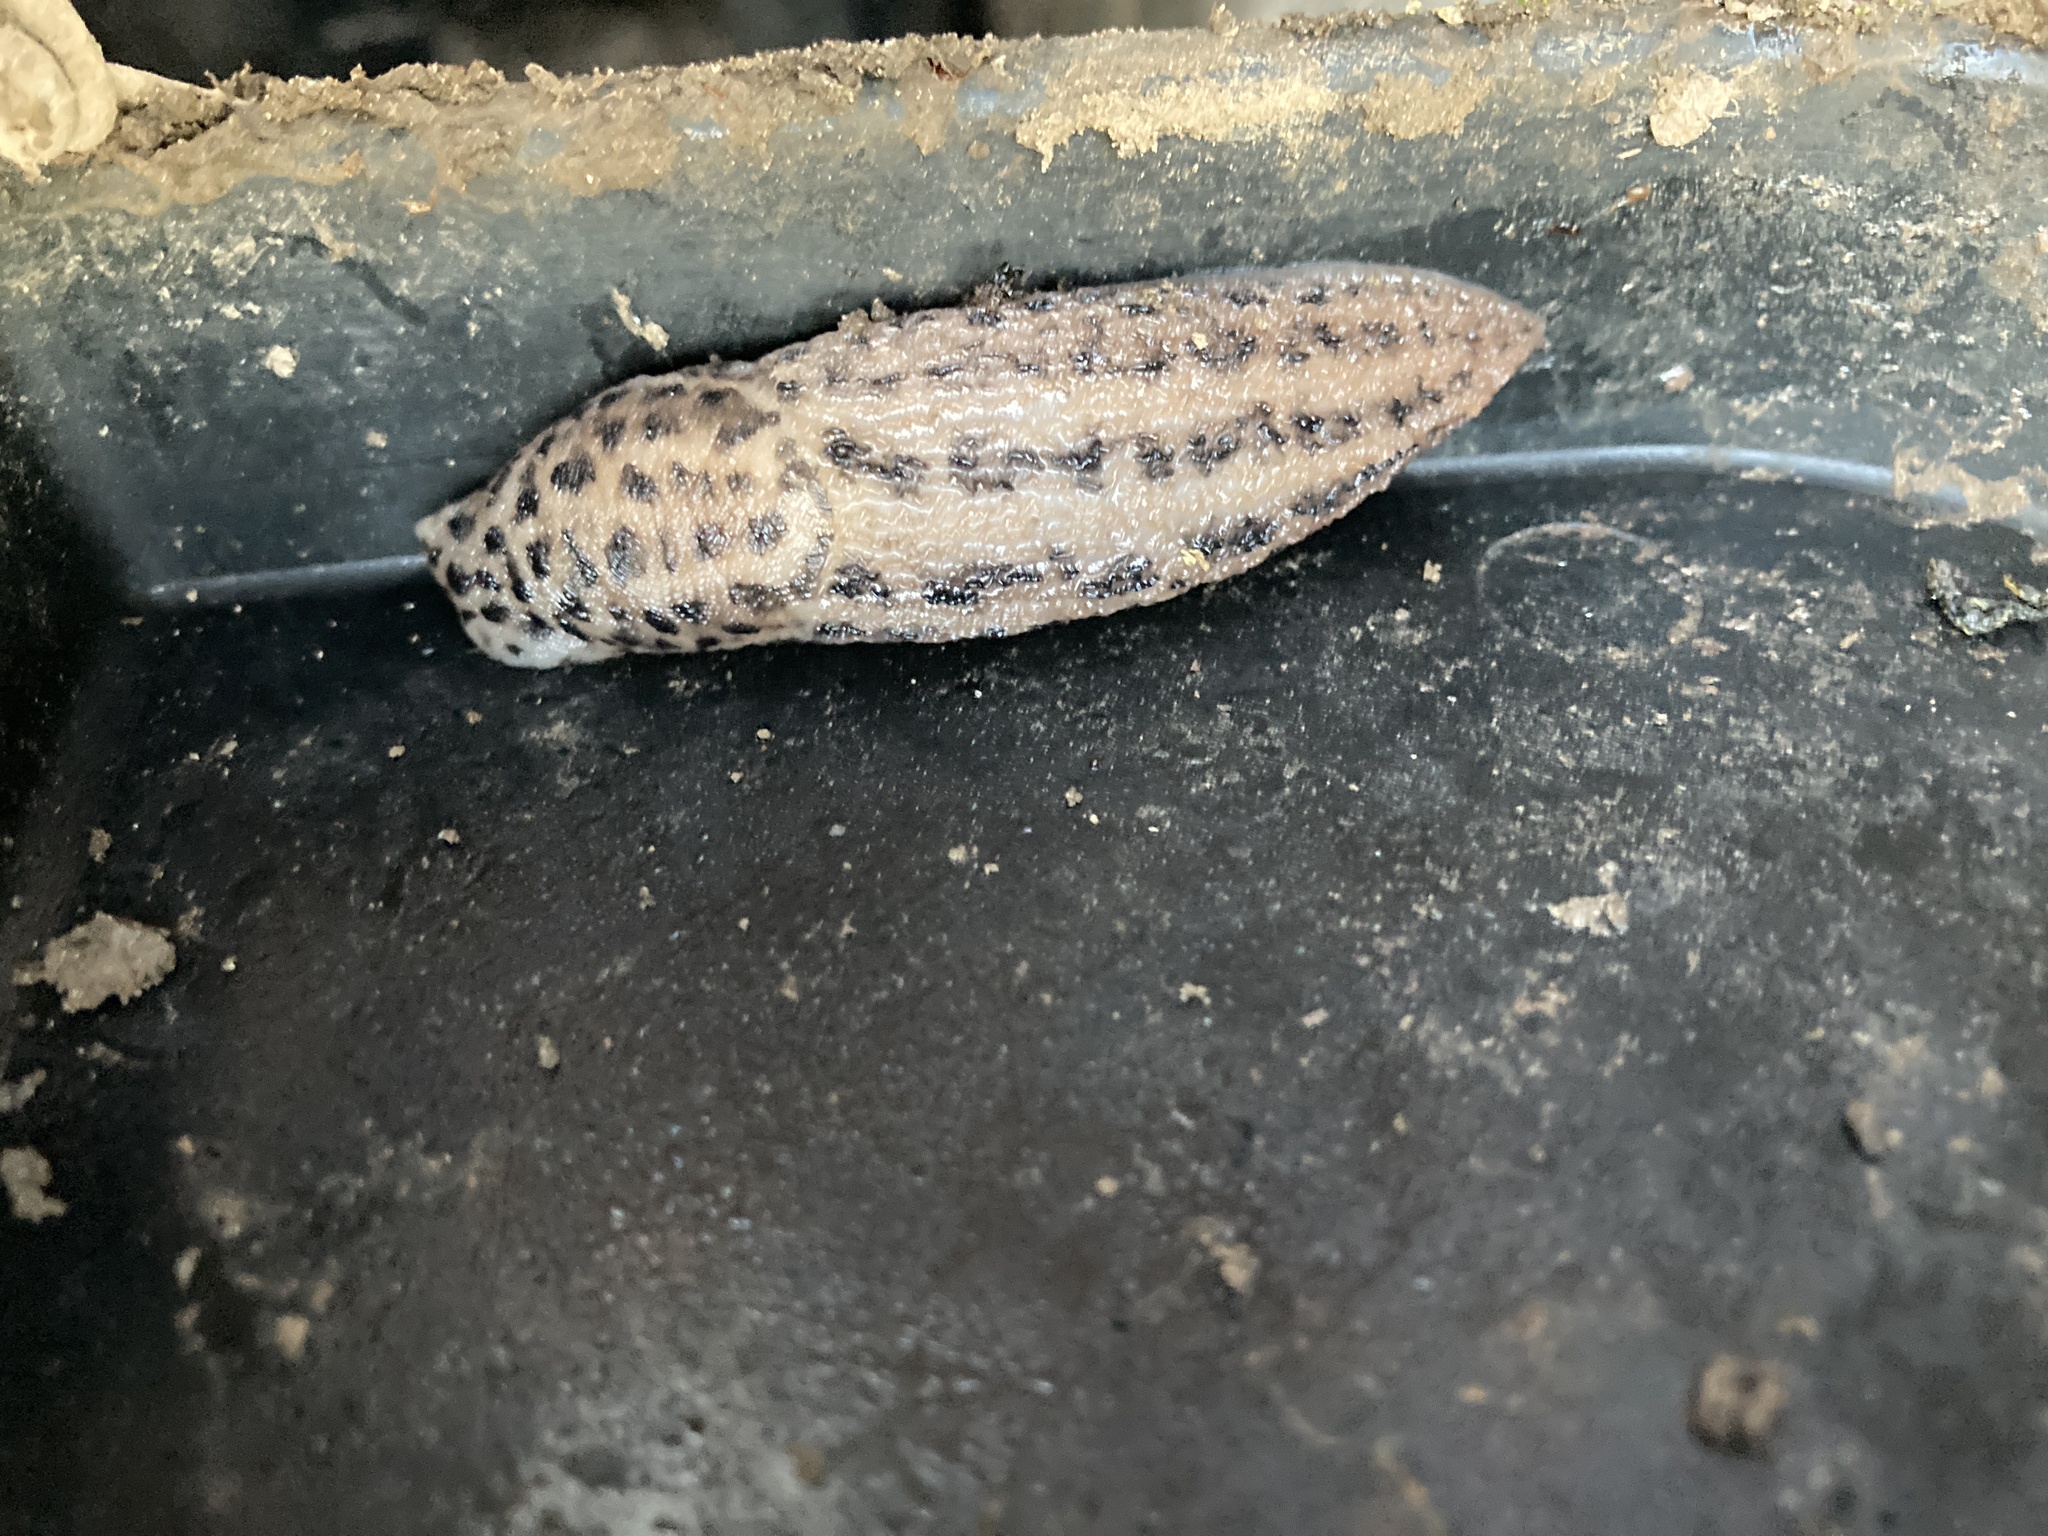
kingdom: Animalia
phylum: Mollusca
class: Gastropoda
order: Stylommatophora
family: Limacidae
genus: Limax
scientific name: Limax maximus
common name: Great grey slug
